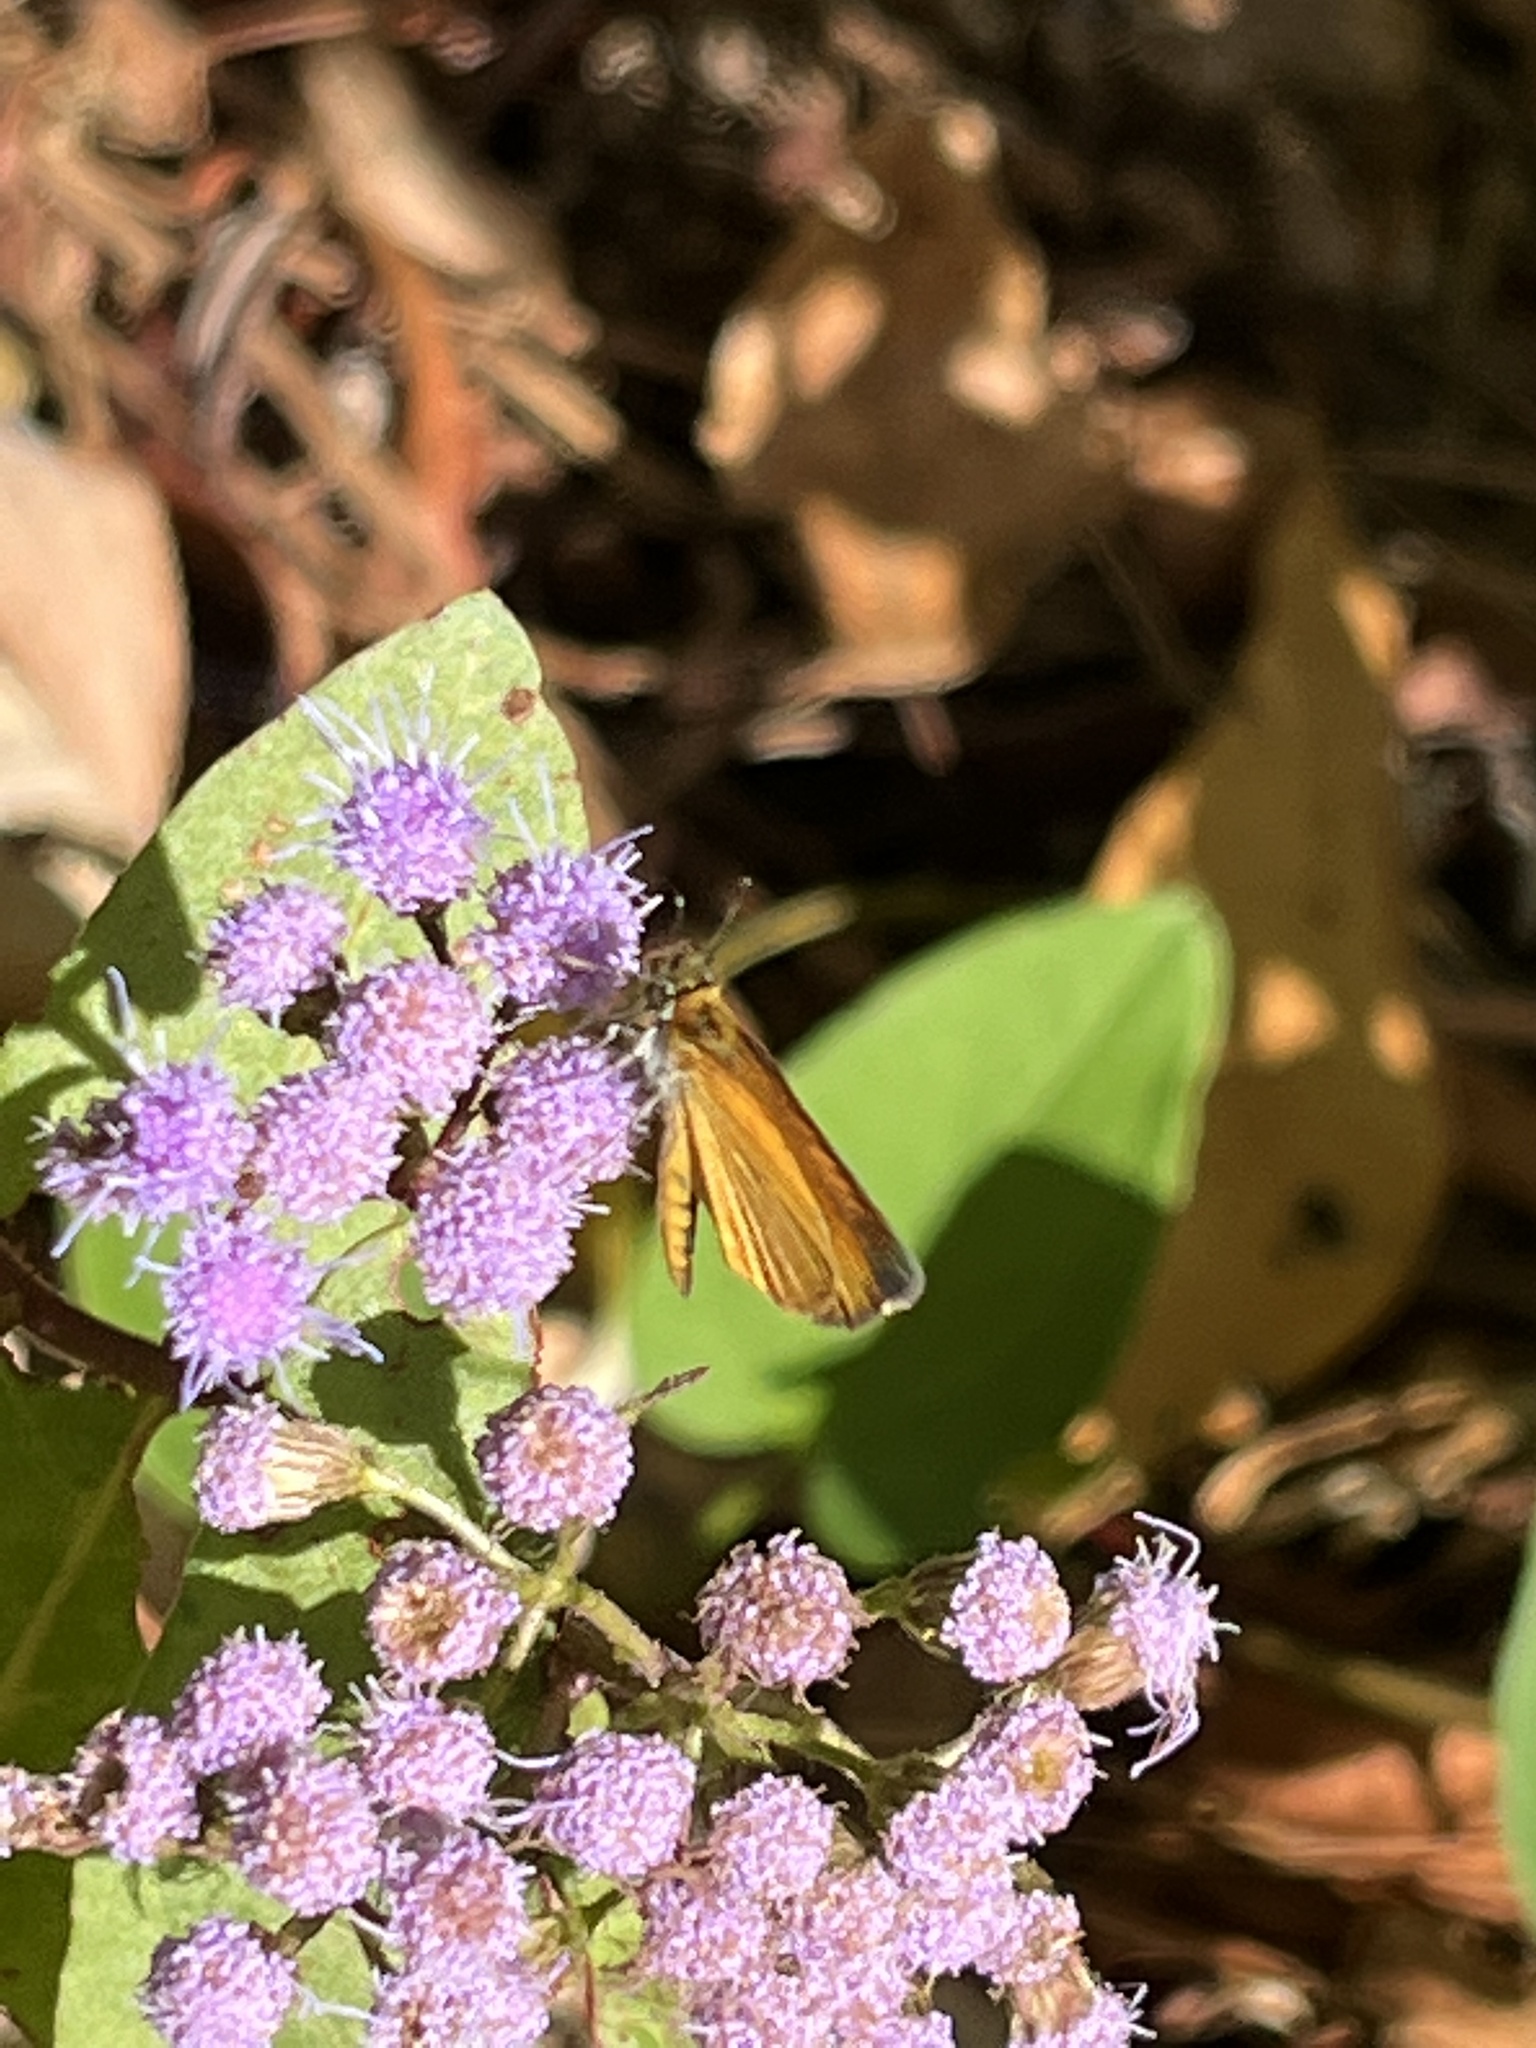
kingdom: Animalia
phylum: Arthropoda
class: Insecta
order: Lepidoptera
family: Hesperiidae
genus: Ancyloxypha
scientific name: Ancyloxypha numitor
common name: Least skipper
